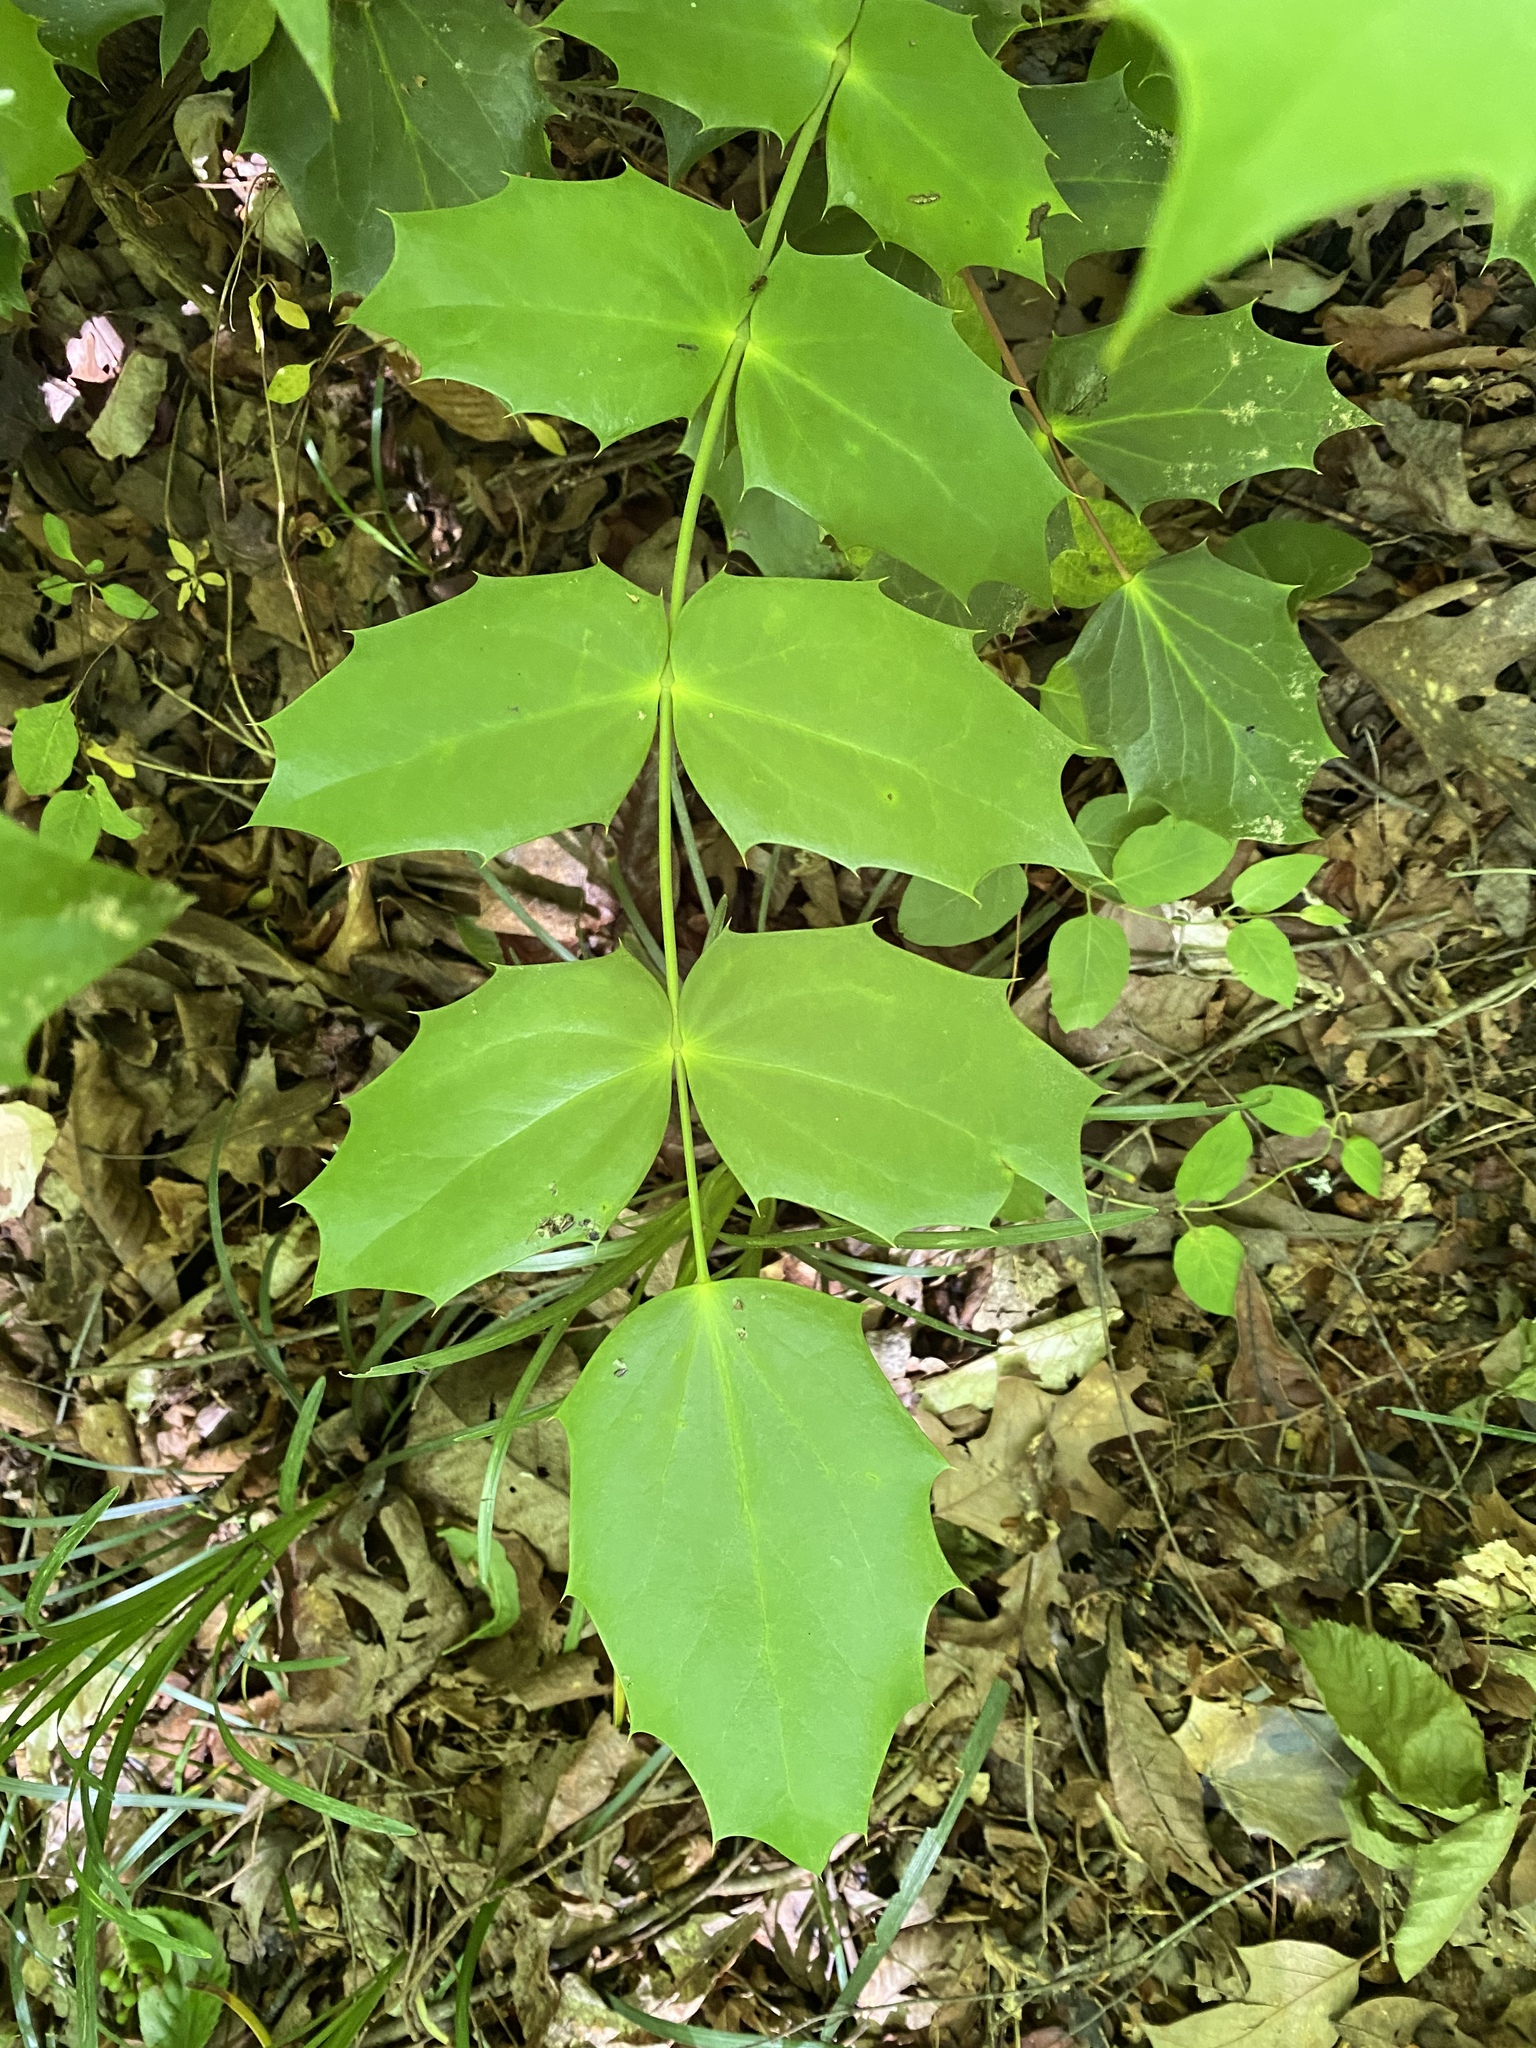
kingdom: Plantae
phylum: Tracheophyta
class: Magnoliopsida
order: Ranunculales
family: Berberidaceae
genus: Mahonia
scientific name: Mahonia bealei
